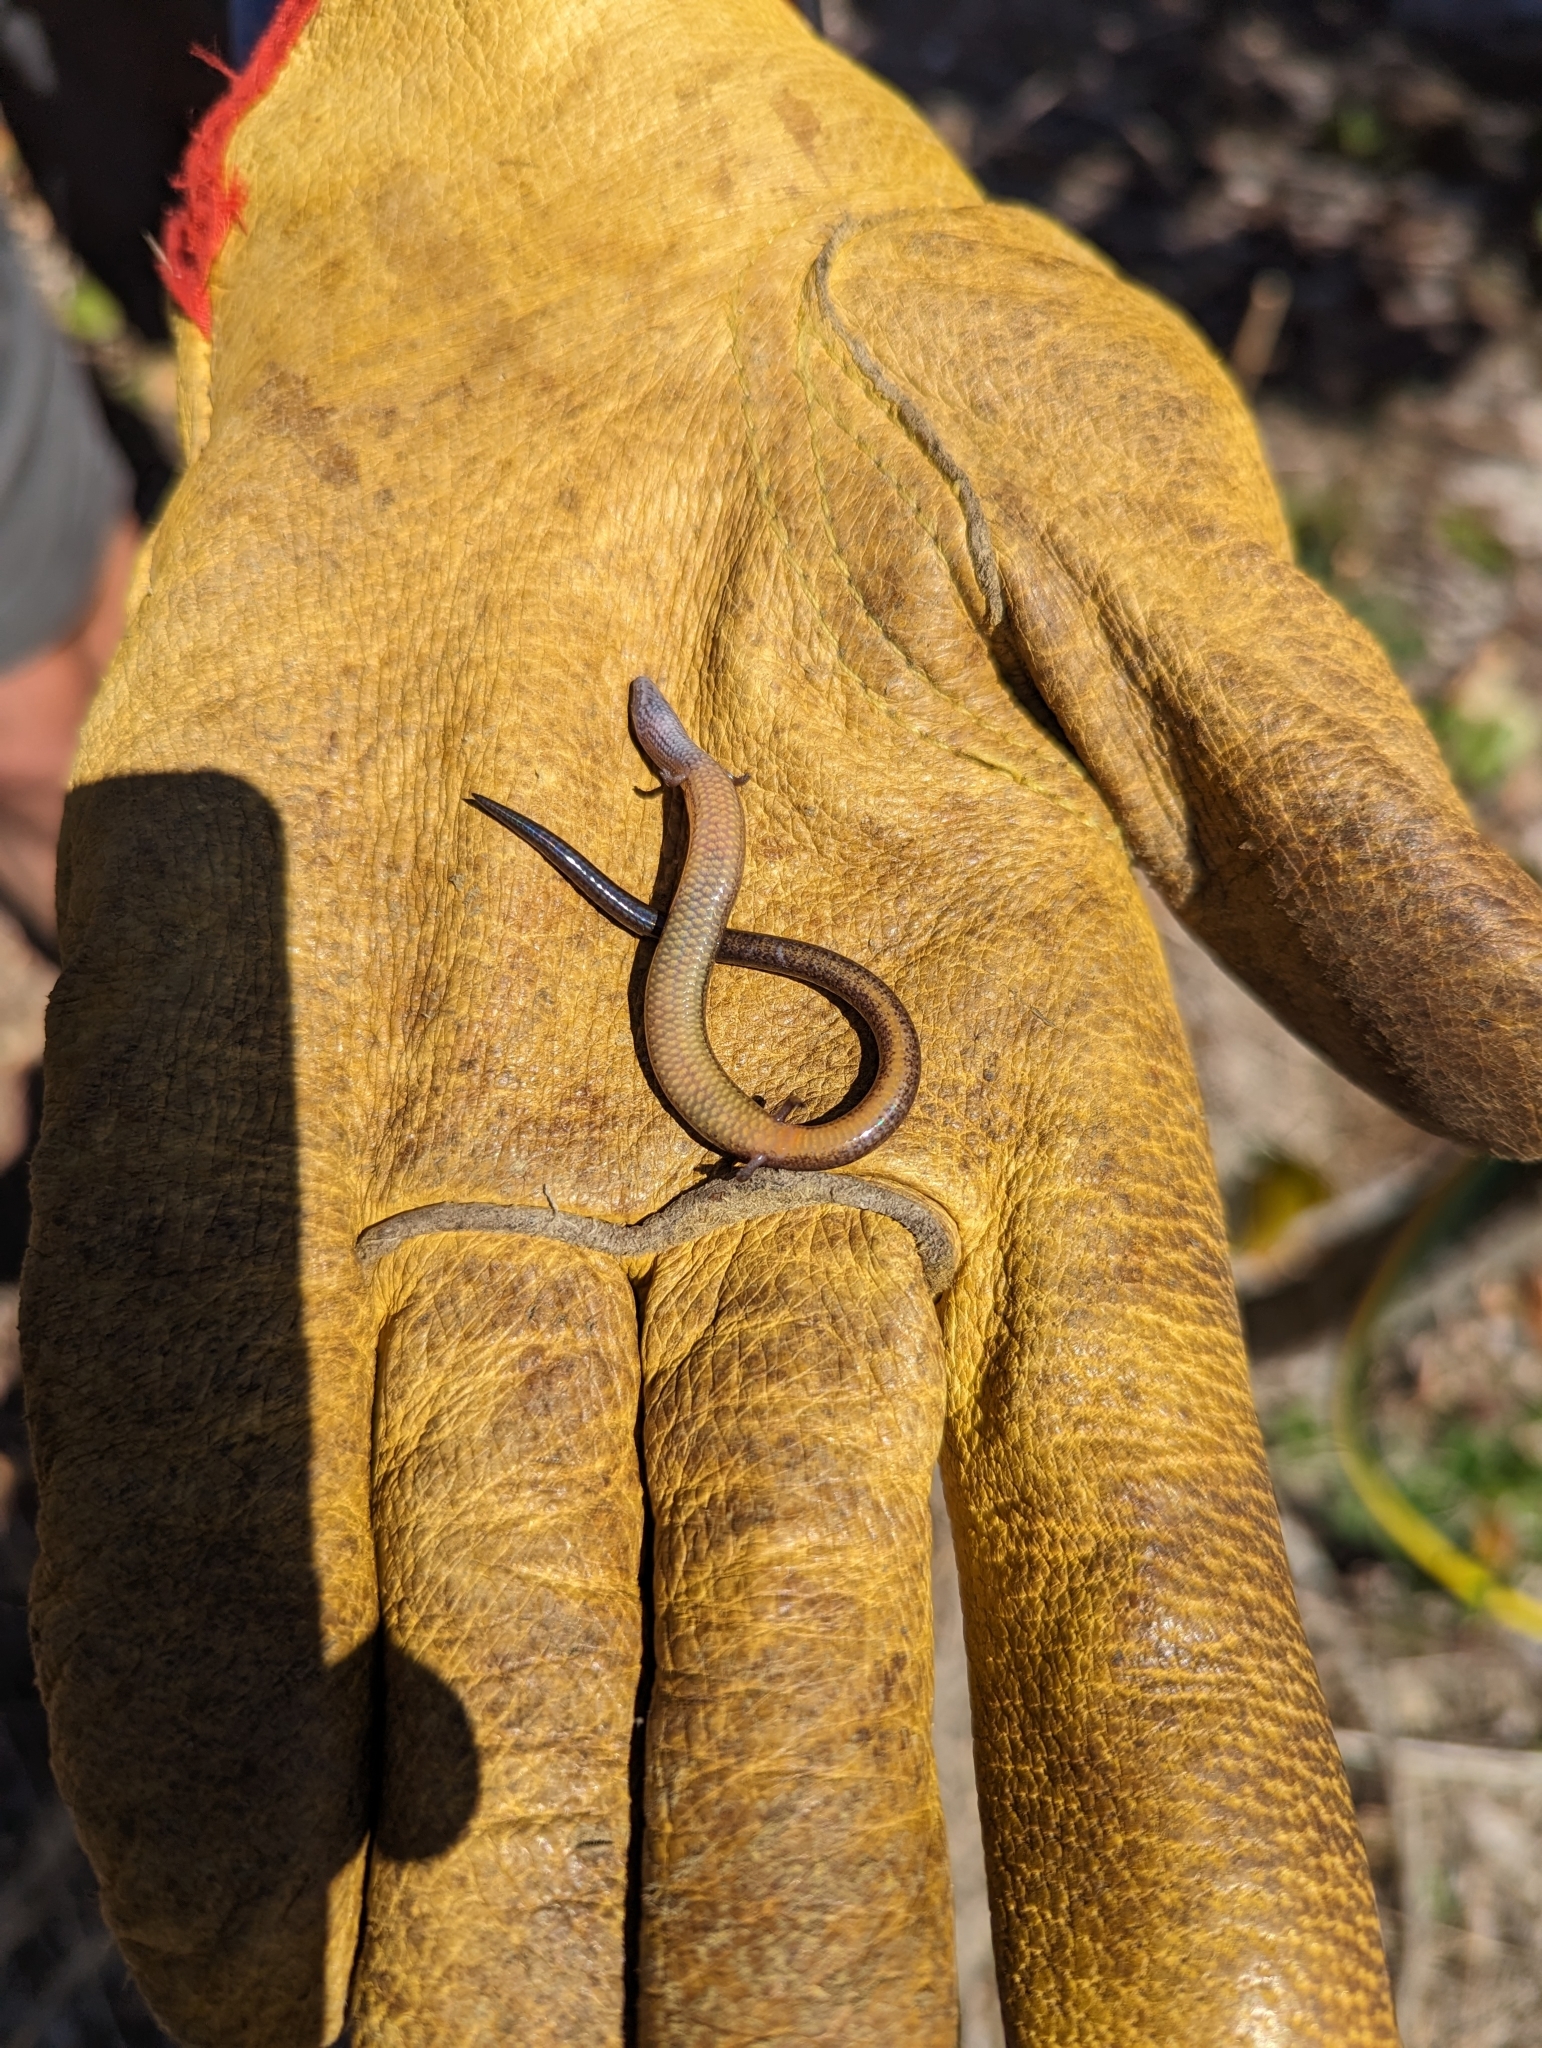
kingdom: Animalia
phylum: Chordata
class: Squamata
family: Scincidae
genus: Saiphos
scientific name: Saiphos equalis
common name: Three-toed skink
